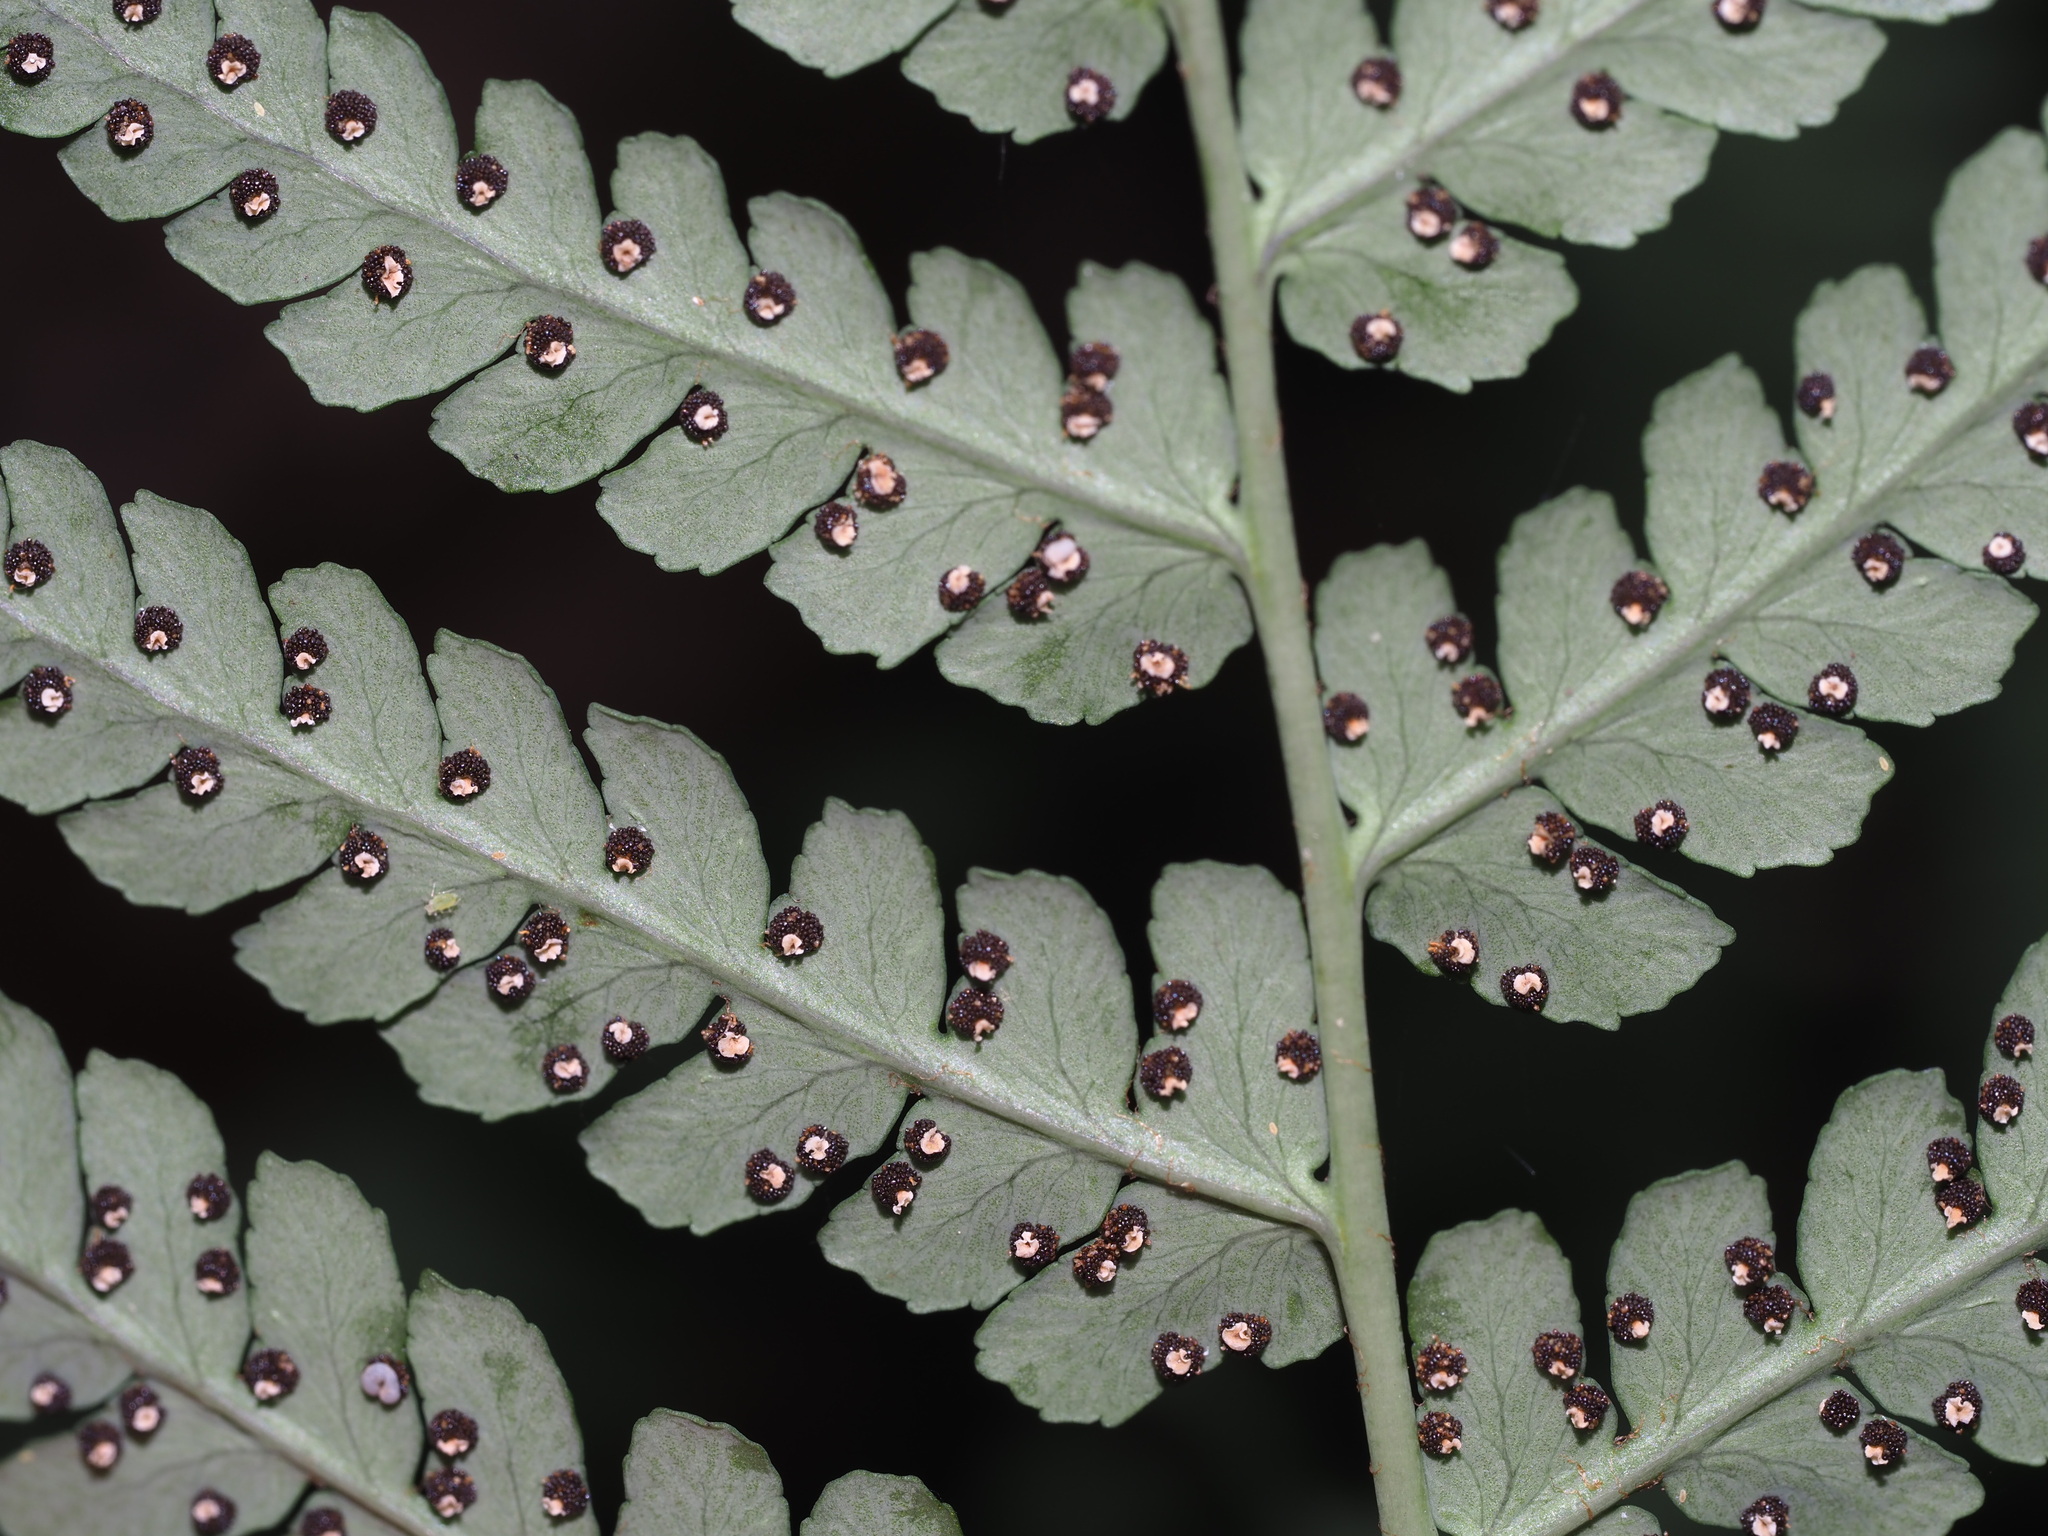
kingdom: Plantae
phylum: Tracheophyta
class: Polypodiopsida
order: Polypodiales
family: Dryopteridaceae
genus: Dryopteris
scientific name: Dryopteris marginalis
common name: Marginal wood fern
